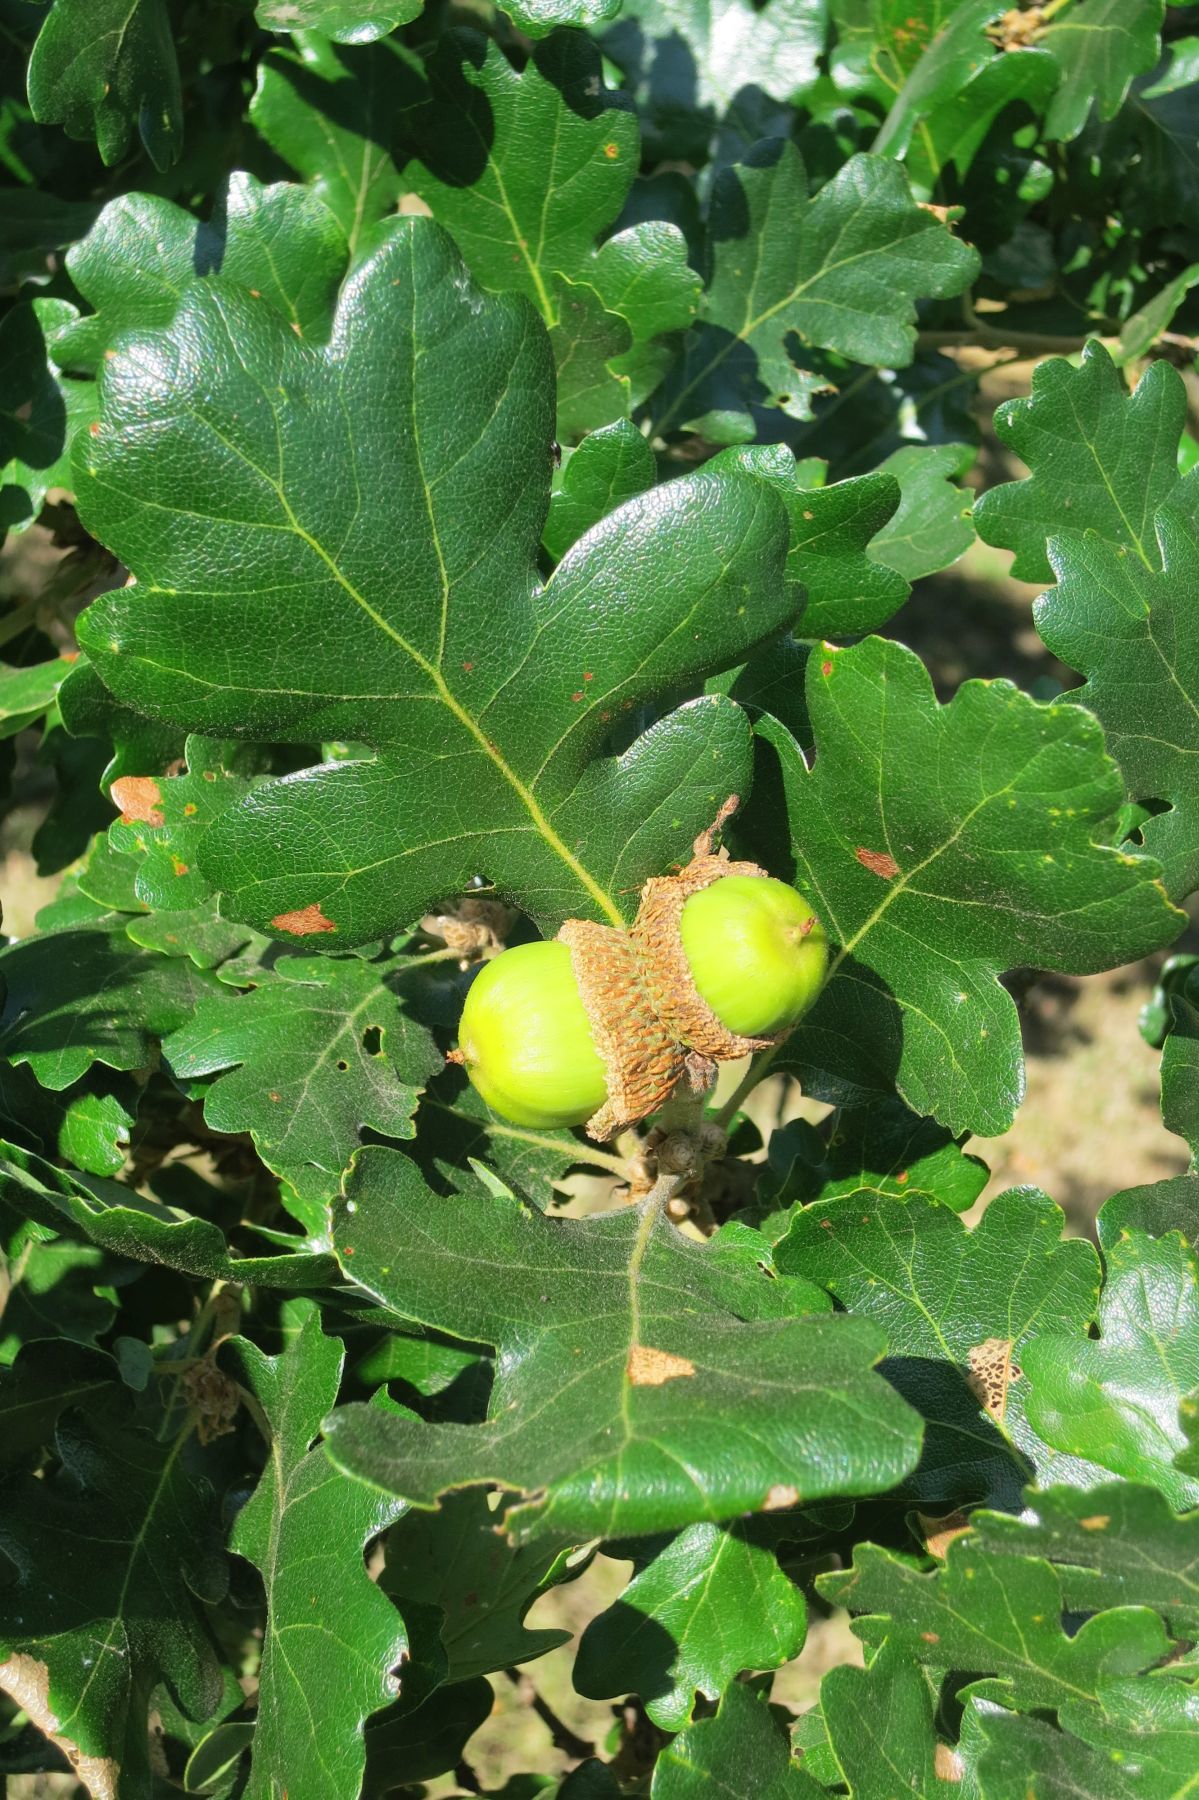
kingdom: Plantae
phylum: Tracheophyta
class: Magnoliopsida
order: Fagales
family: Fagaceae
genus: Quercus
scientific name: Quercus garryana
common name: Garry oak
